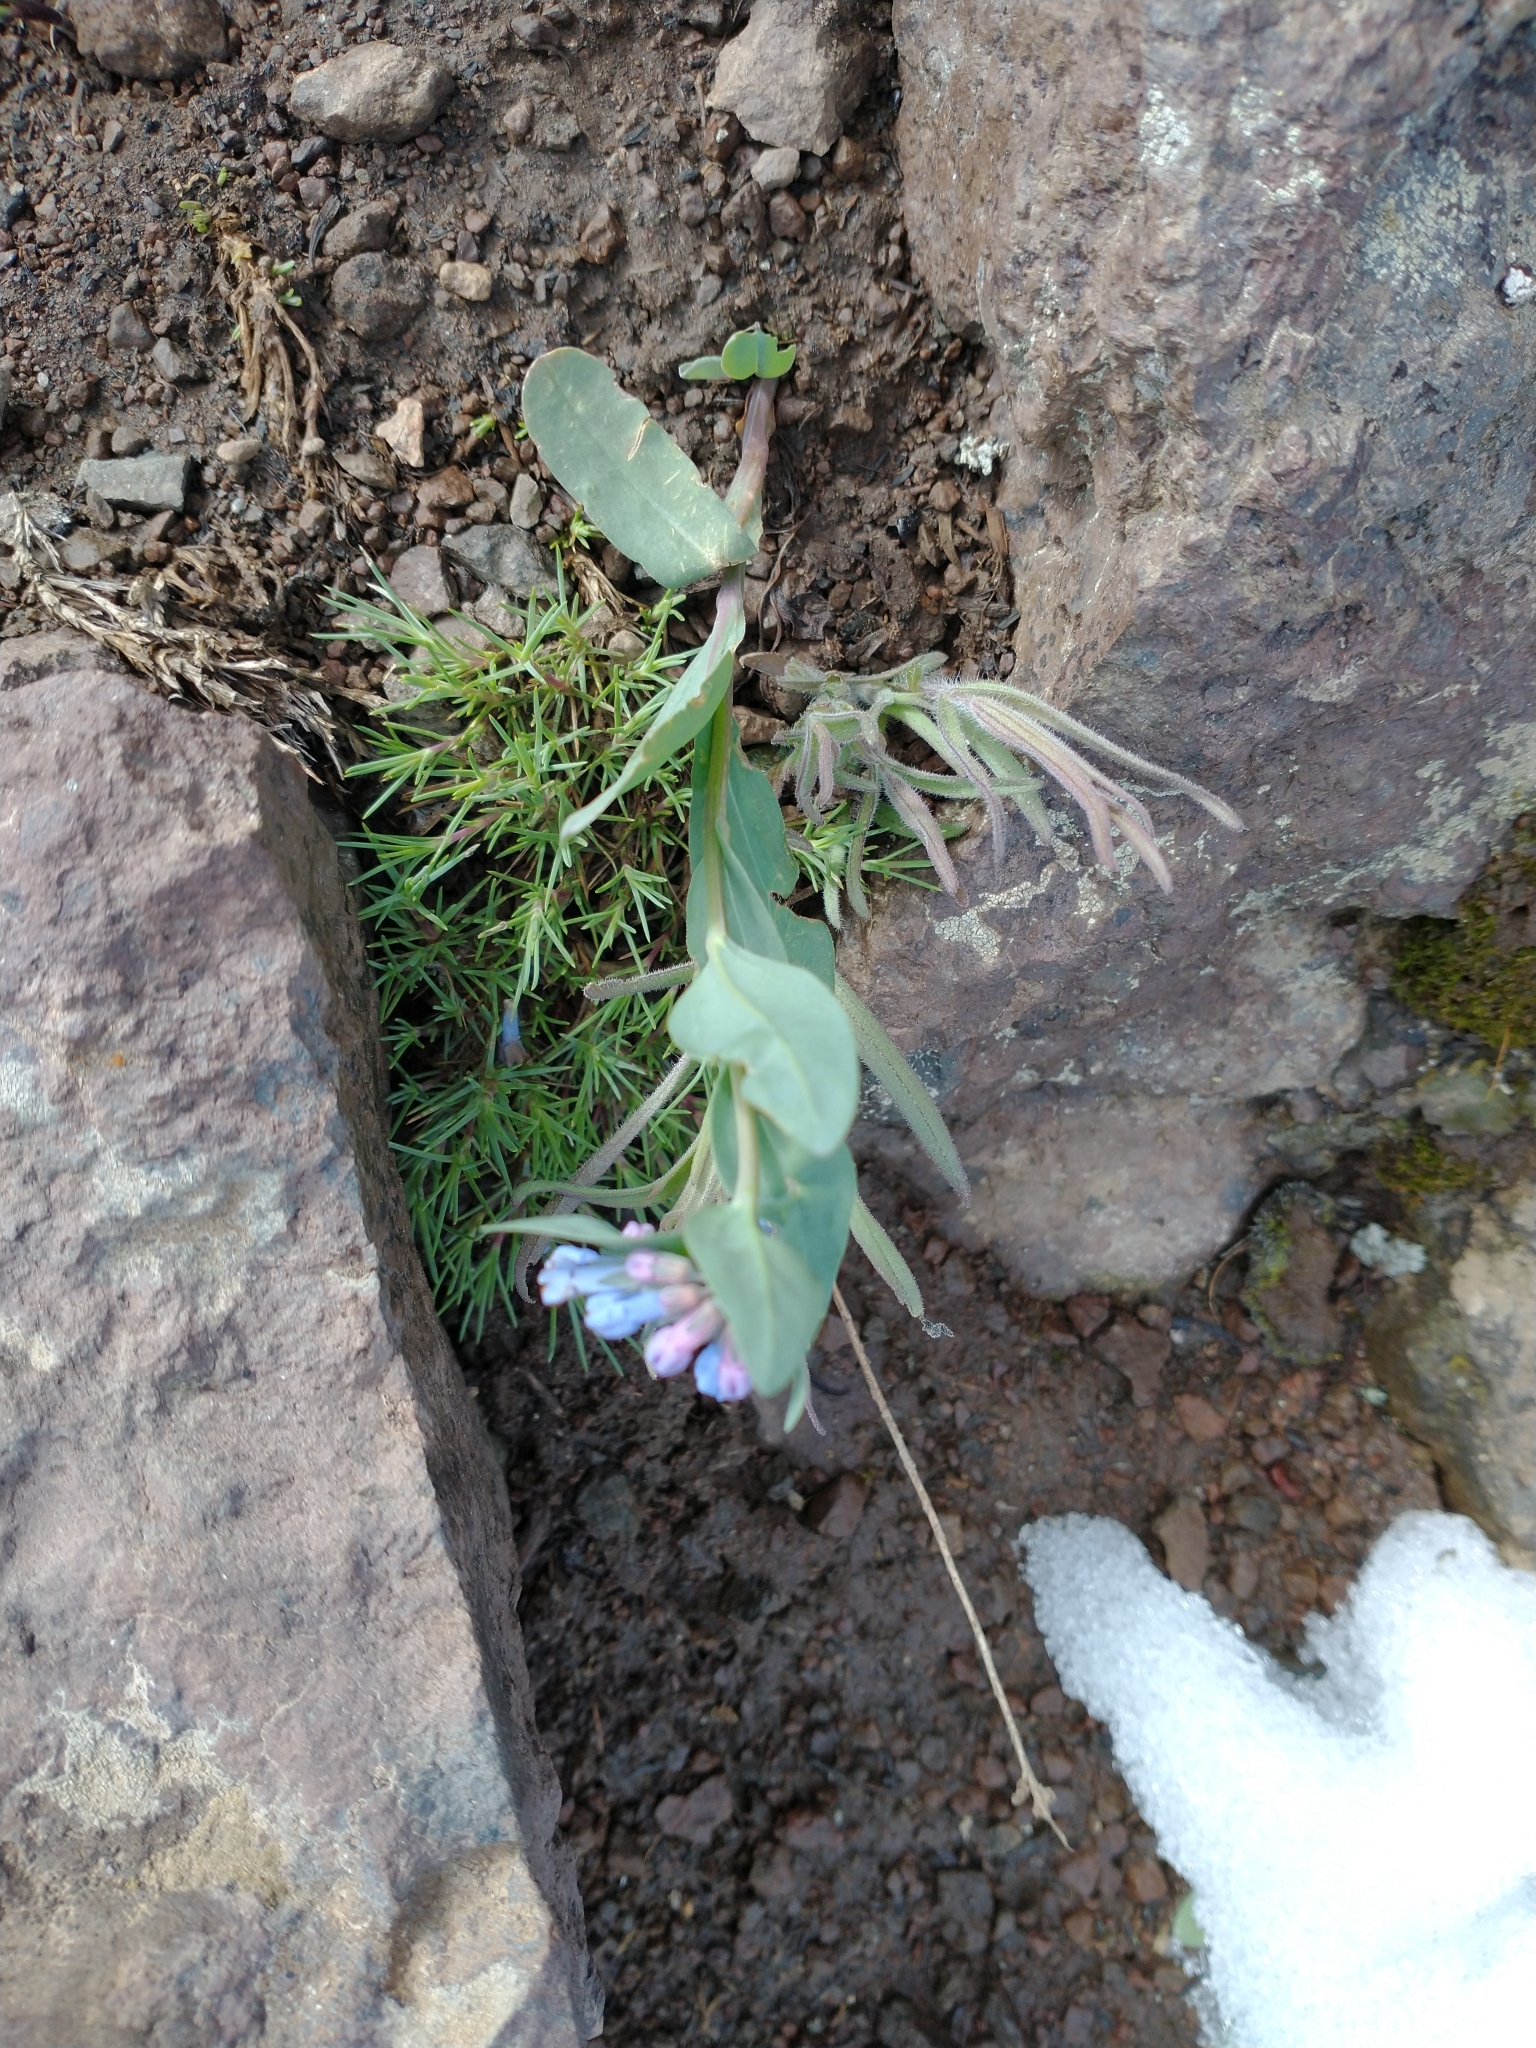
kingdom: Plantae
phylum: Tracheophyta
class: Magnoliopsida
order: Boraginales
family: Boraginaceae
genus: Mertensia
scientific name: Mertensia oblongifolia
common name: Sagebrush bluebells
